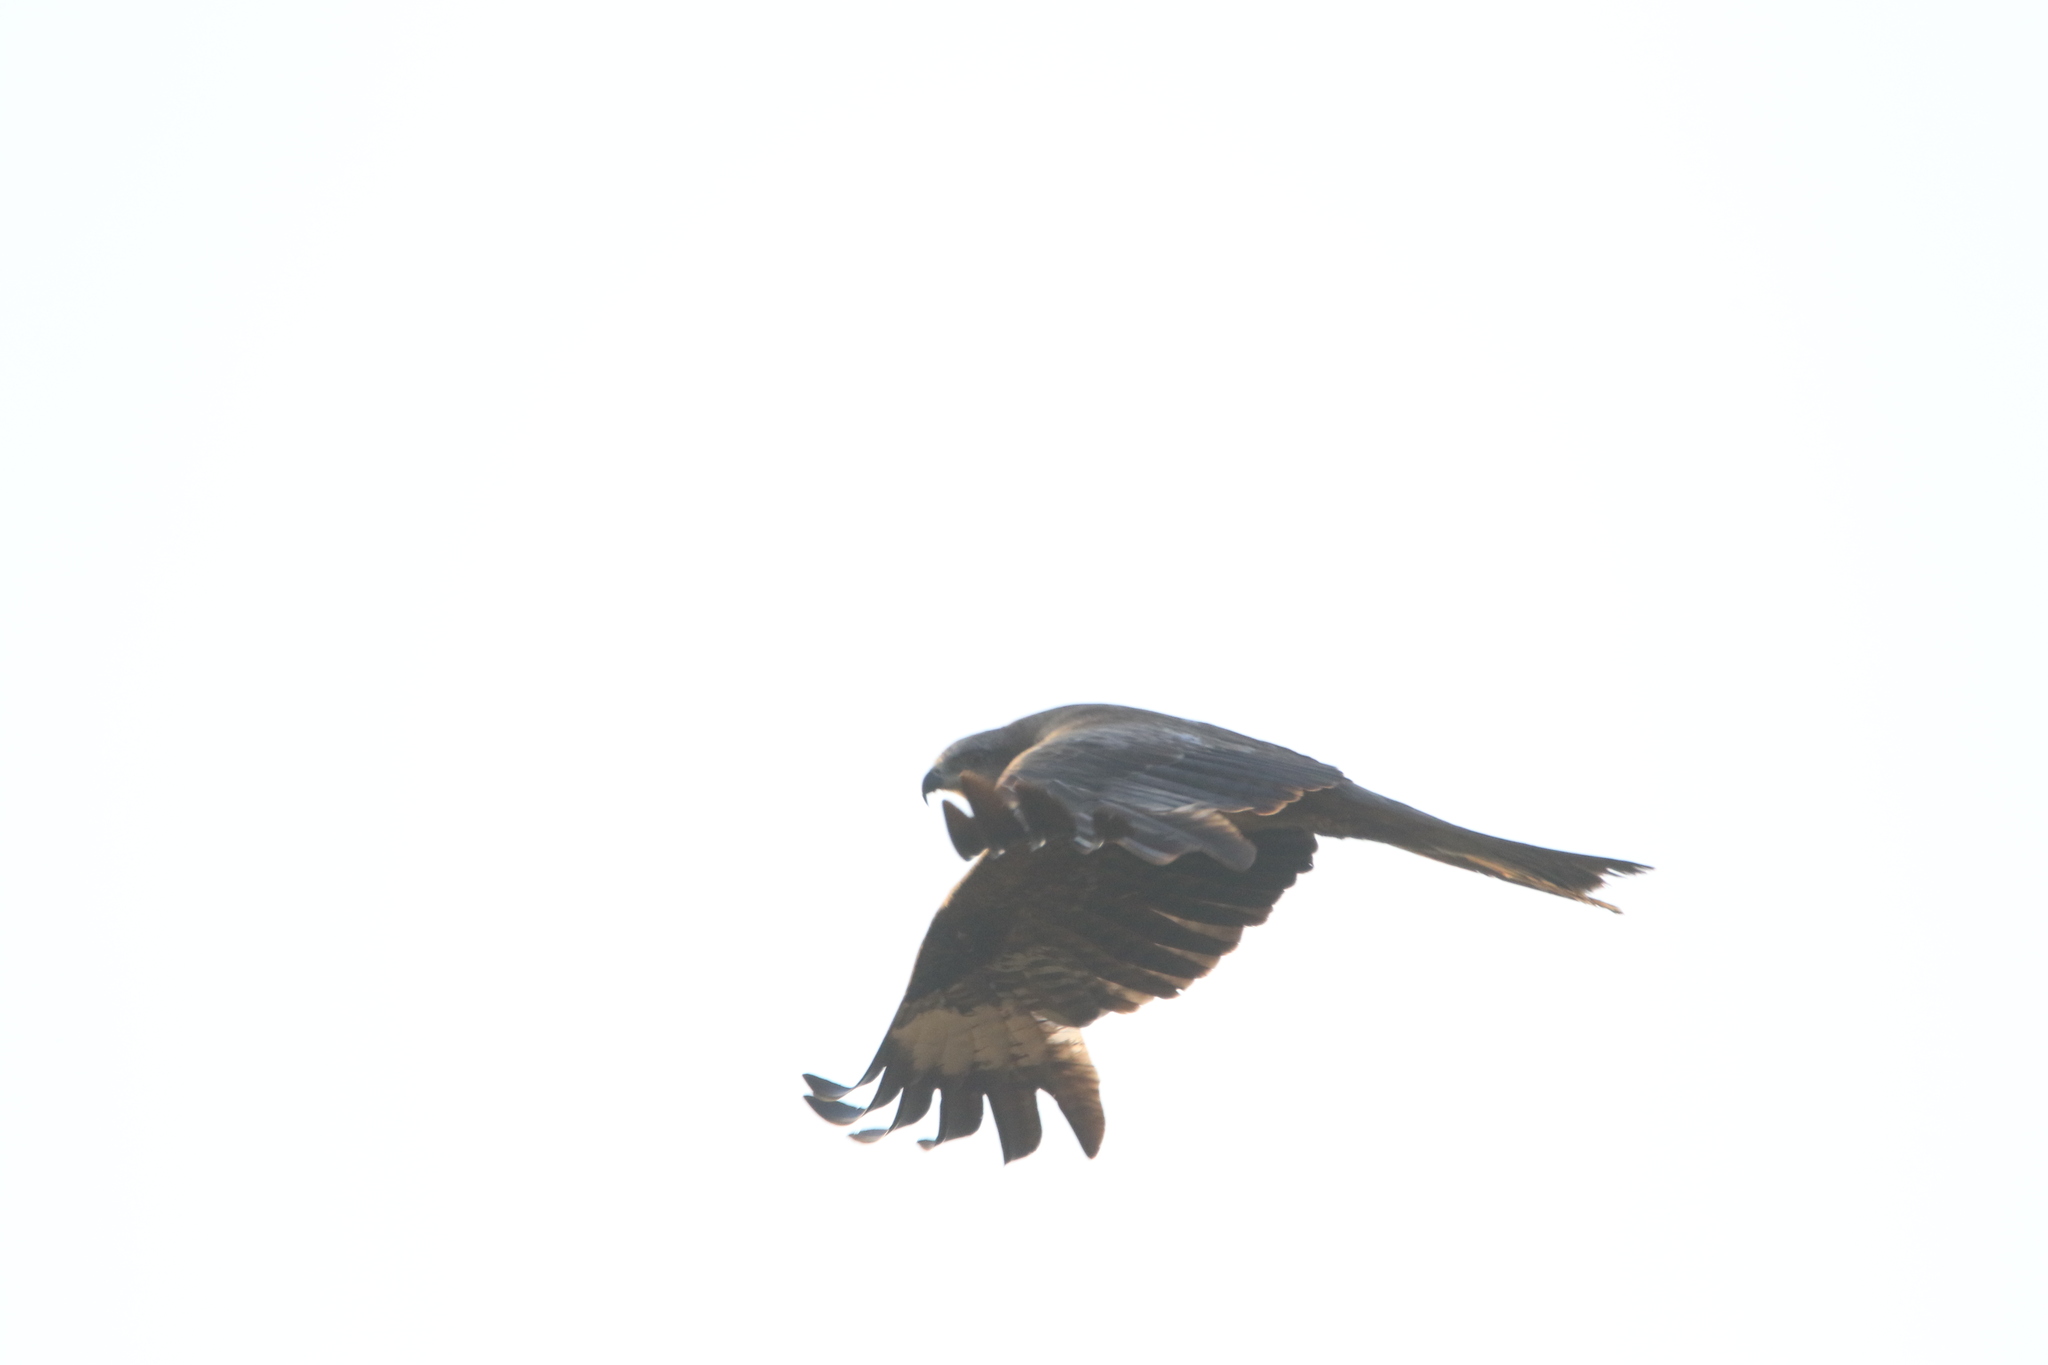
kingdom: Animalia
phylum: Chordata
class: Aves
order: Accipitriformes
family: Accipitridae
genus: Milvus
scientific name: Milvus migrans
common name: Black kite
